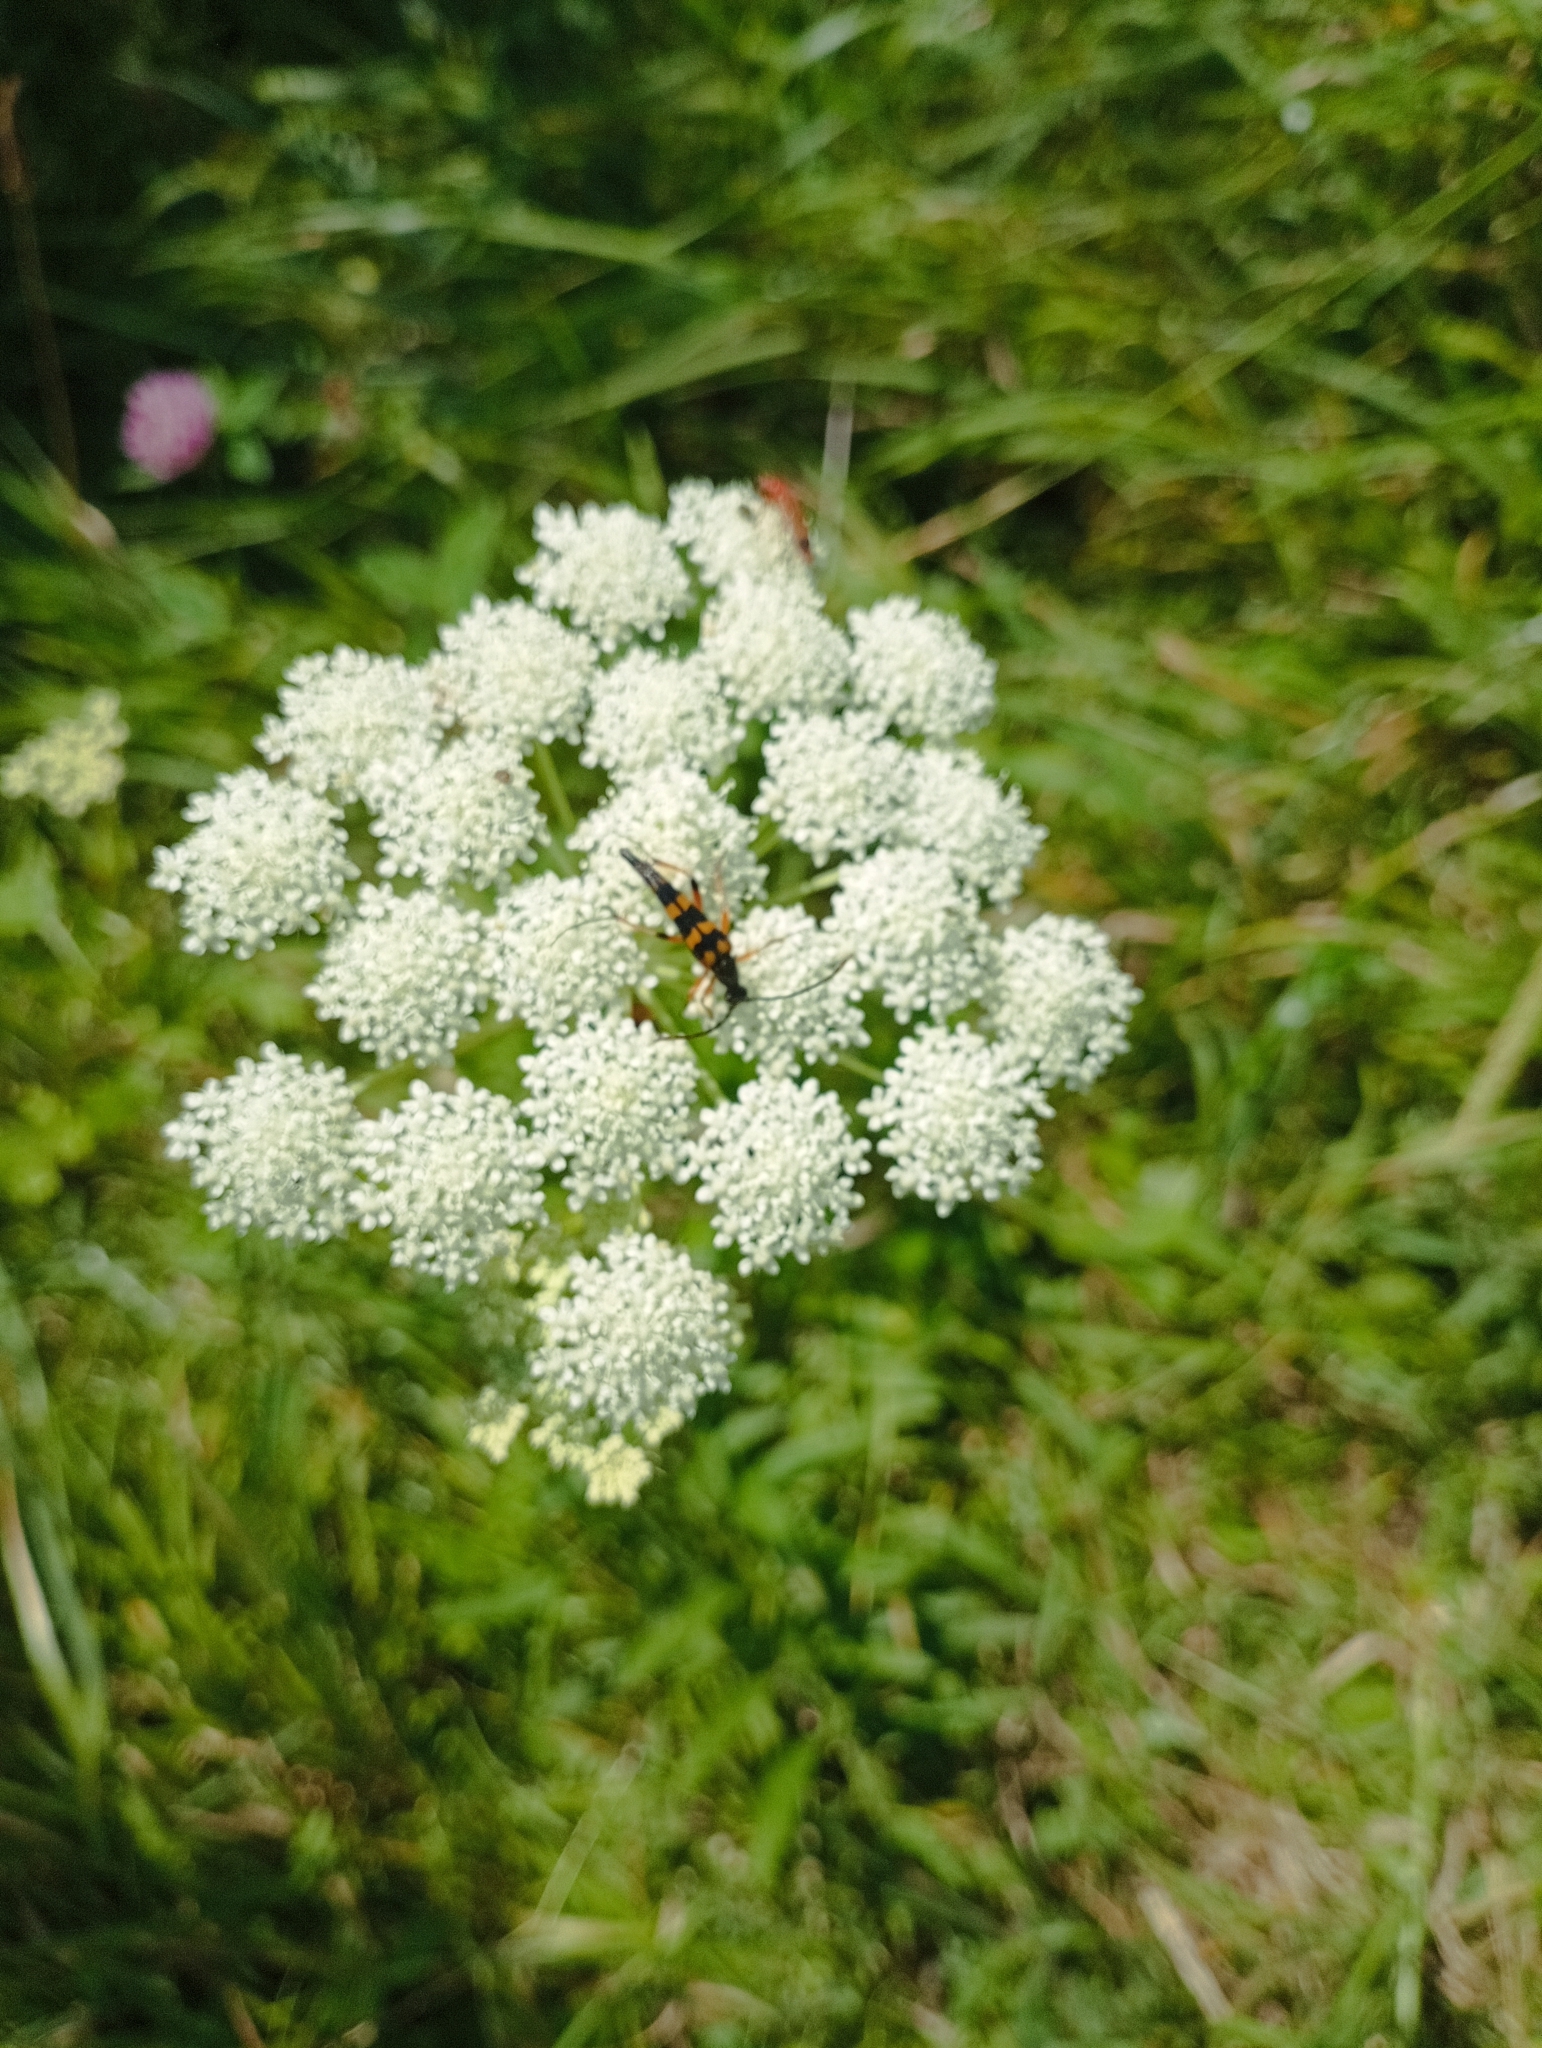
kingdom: Animalia
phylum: Arthropoda
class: Insecta
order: Coleoptera
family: Cerambycidae
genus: Strangalia
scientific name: Strangalia attenuata
